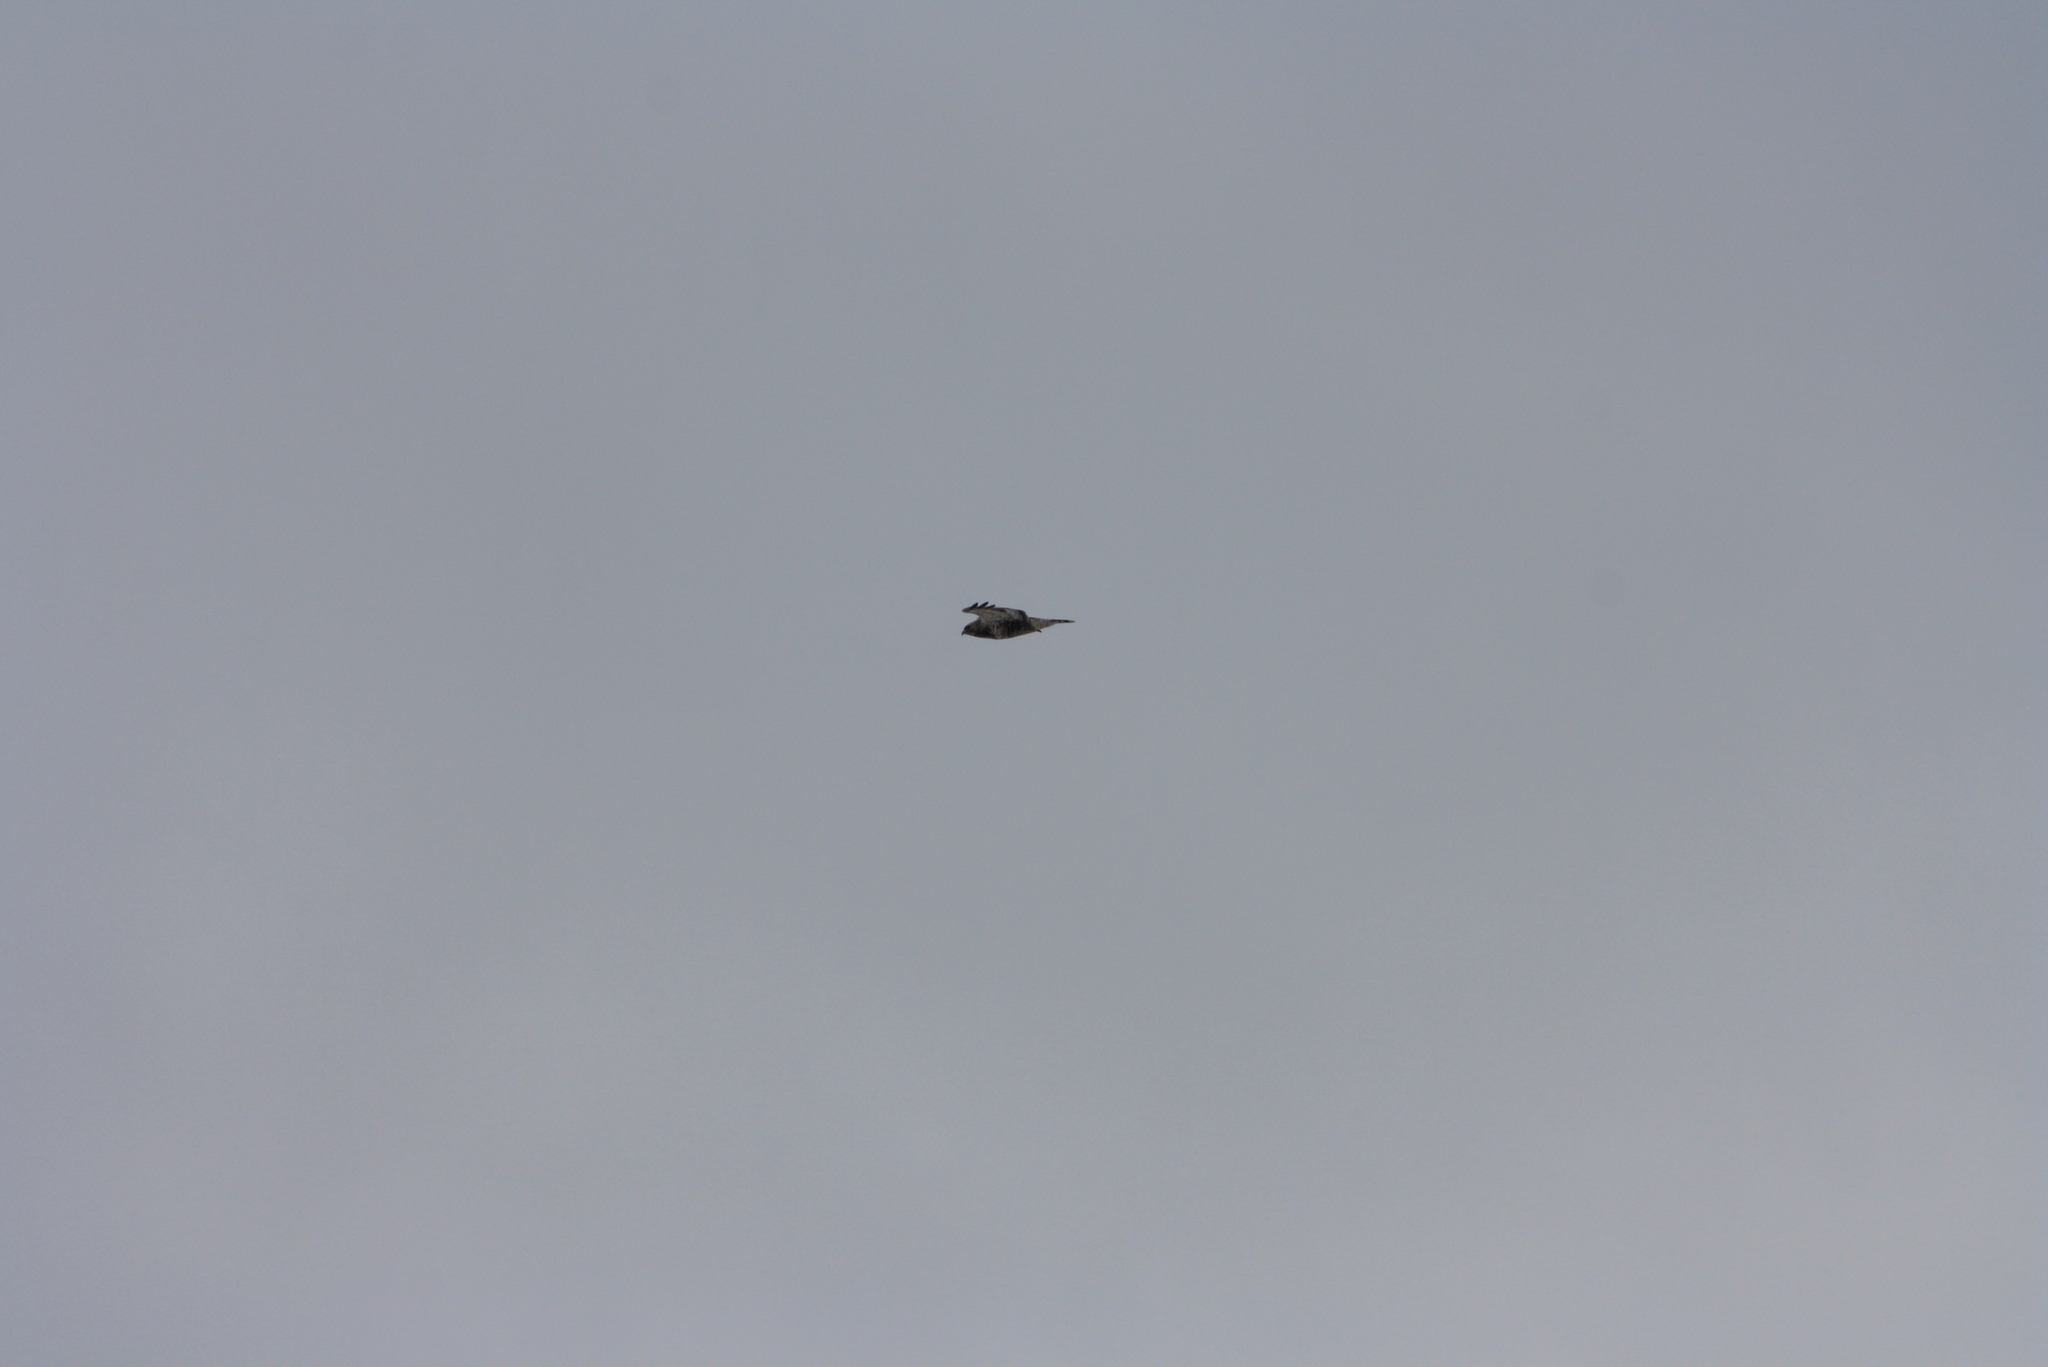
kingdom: Animalia
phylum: Chordata
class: Aves
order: Accipitriformes
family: Accipitridae
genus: Buteo
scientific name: Buteo lagopus
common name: Rough-legged buzzard
